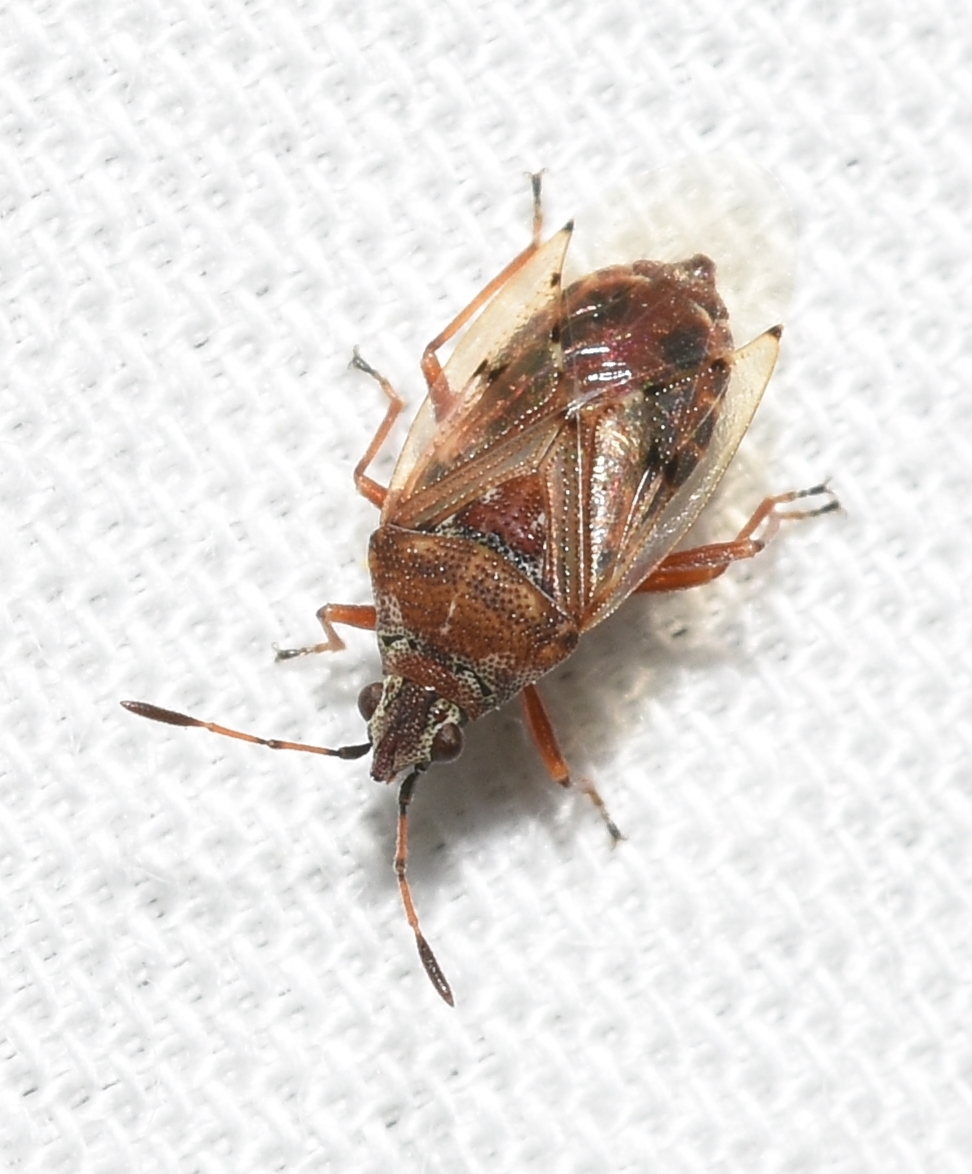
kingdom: Animalia
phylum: Arthropoda
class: Insecta
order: Hemiptera
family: Lygaeidae
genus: Kleidocerys
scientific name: Kleidocerys resedae
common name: Birch catkin bug
